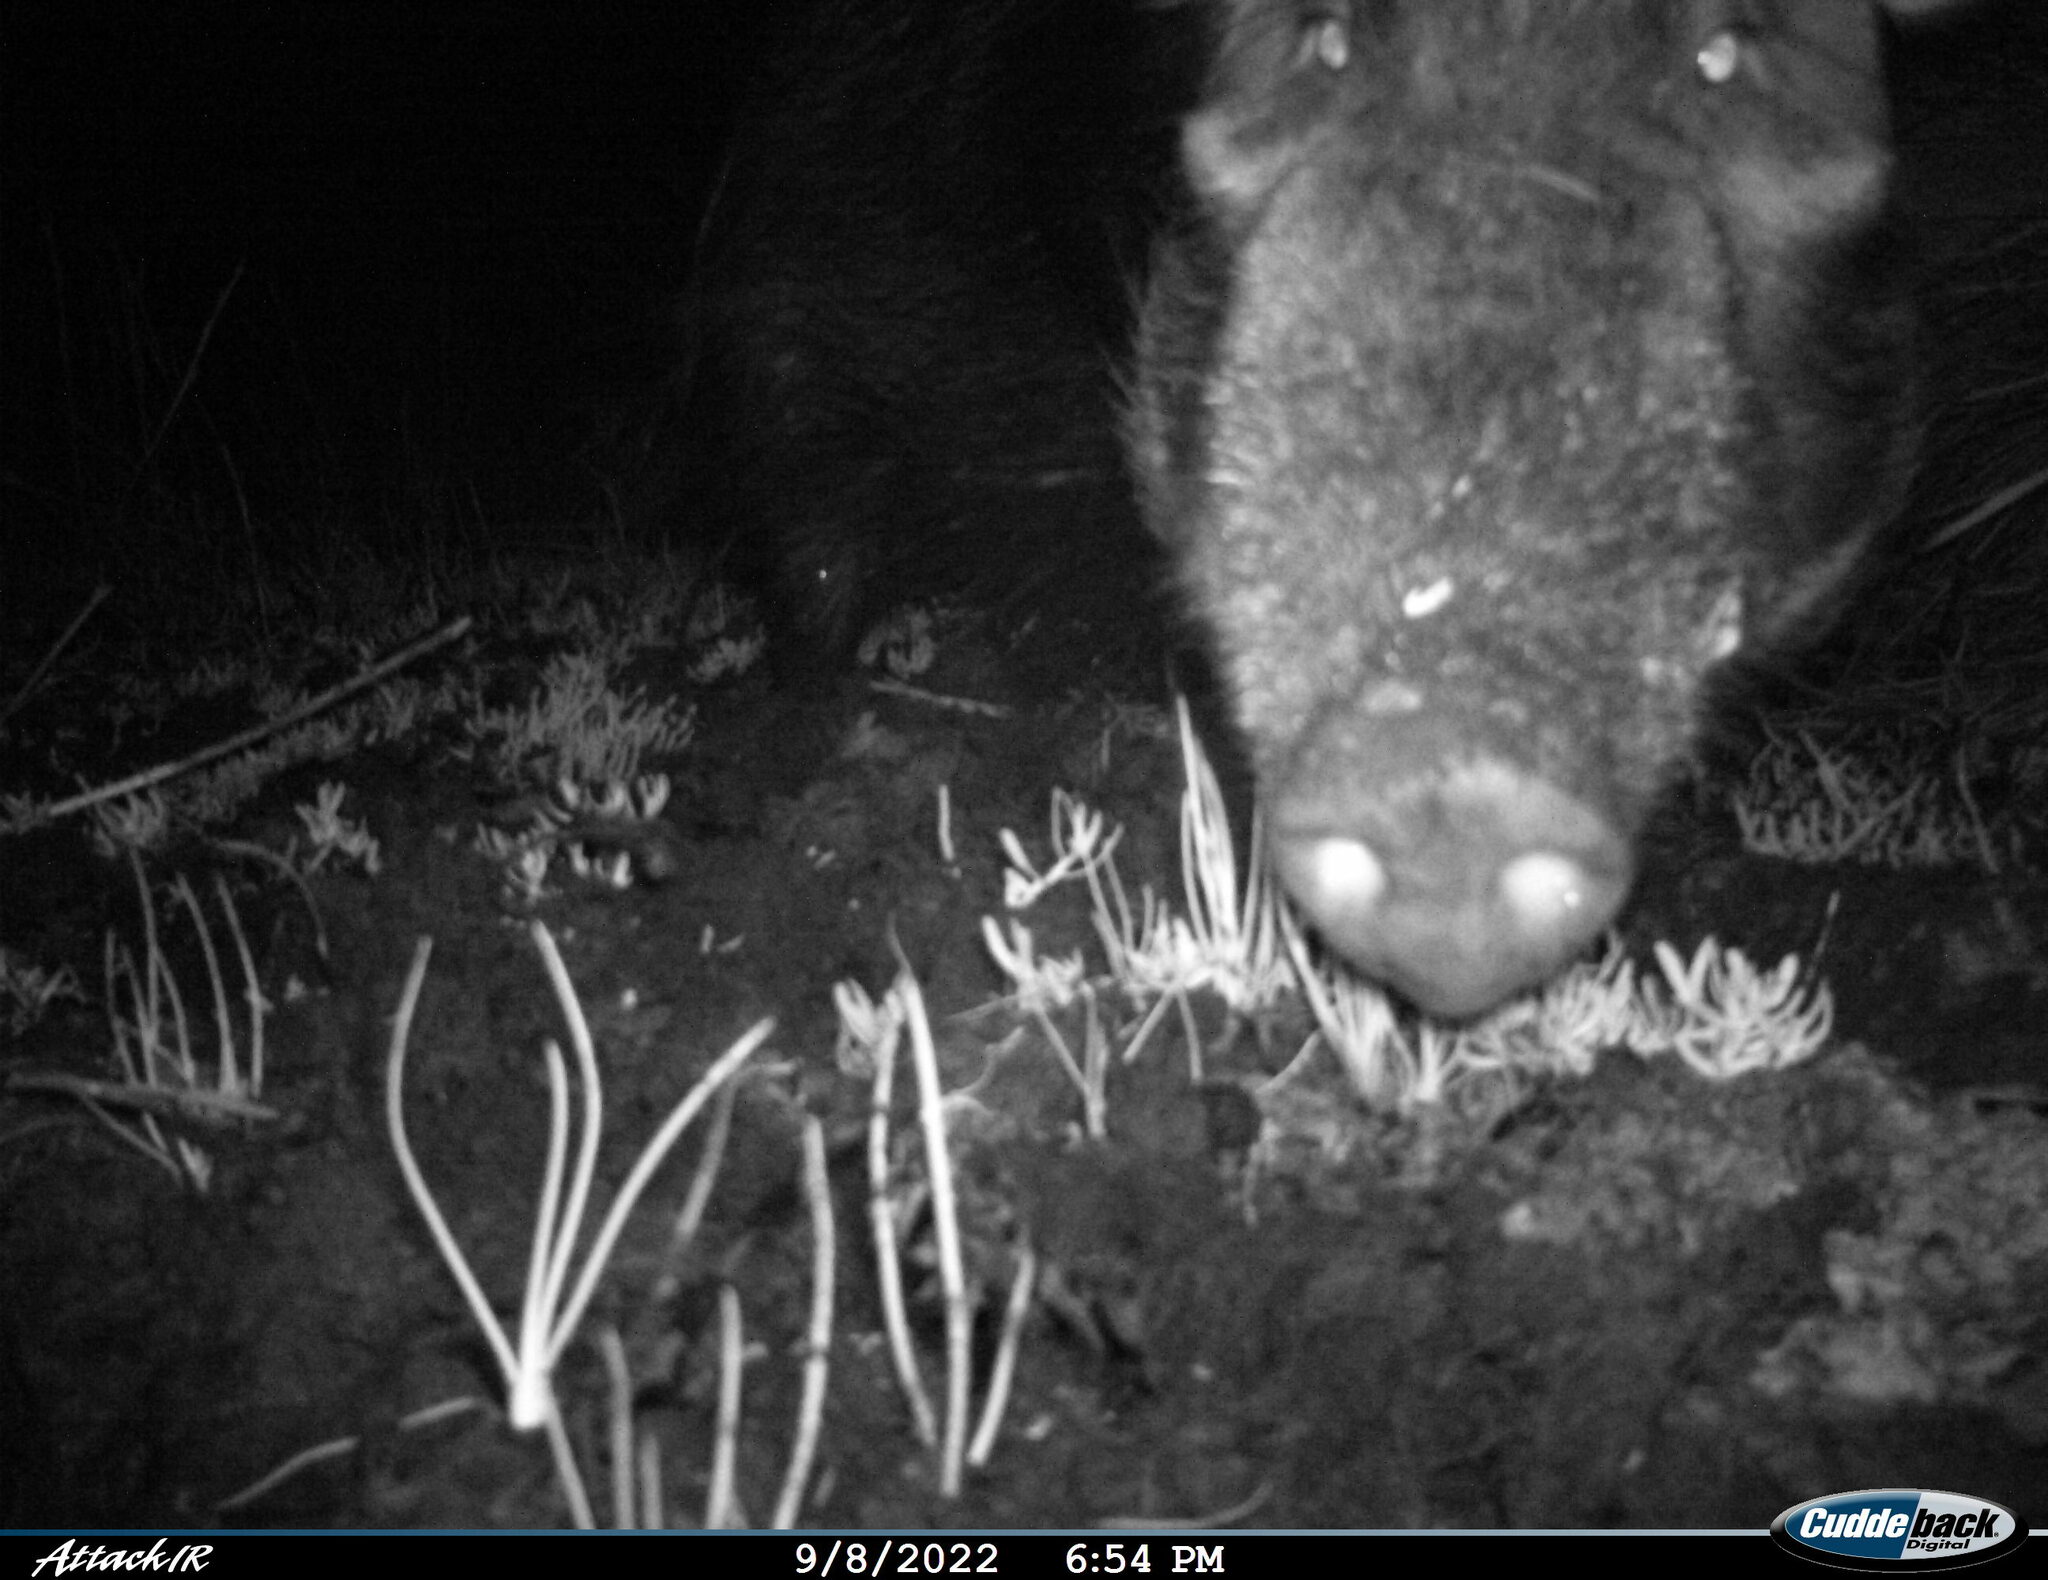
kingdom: Animalia
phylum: Chordata
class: Mammalia
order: Artiodactyla
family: Suidae
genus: Potamochoerus
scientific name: Potamochoerus larvatus
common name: Bushpig
